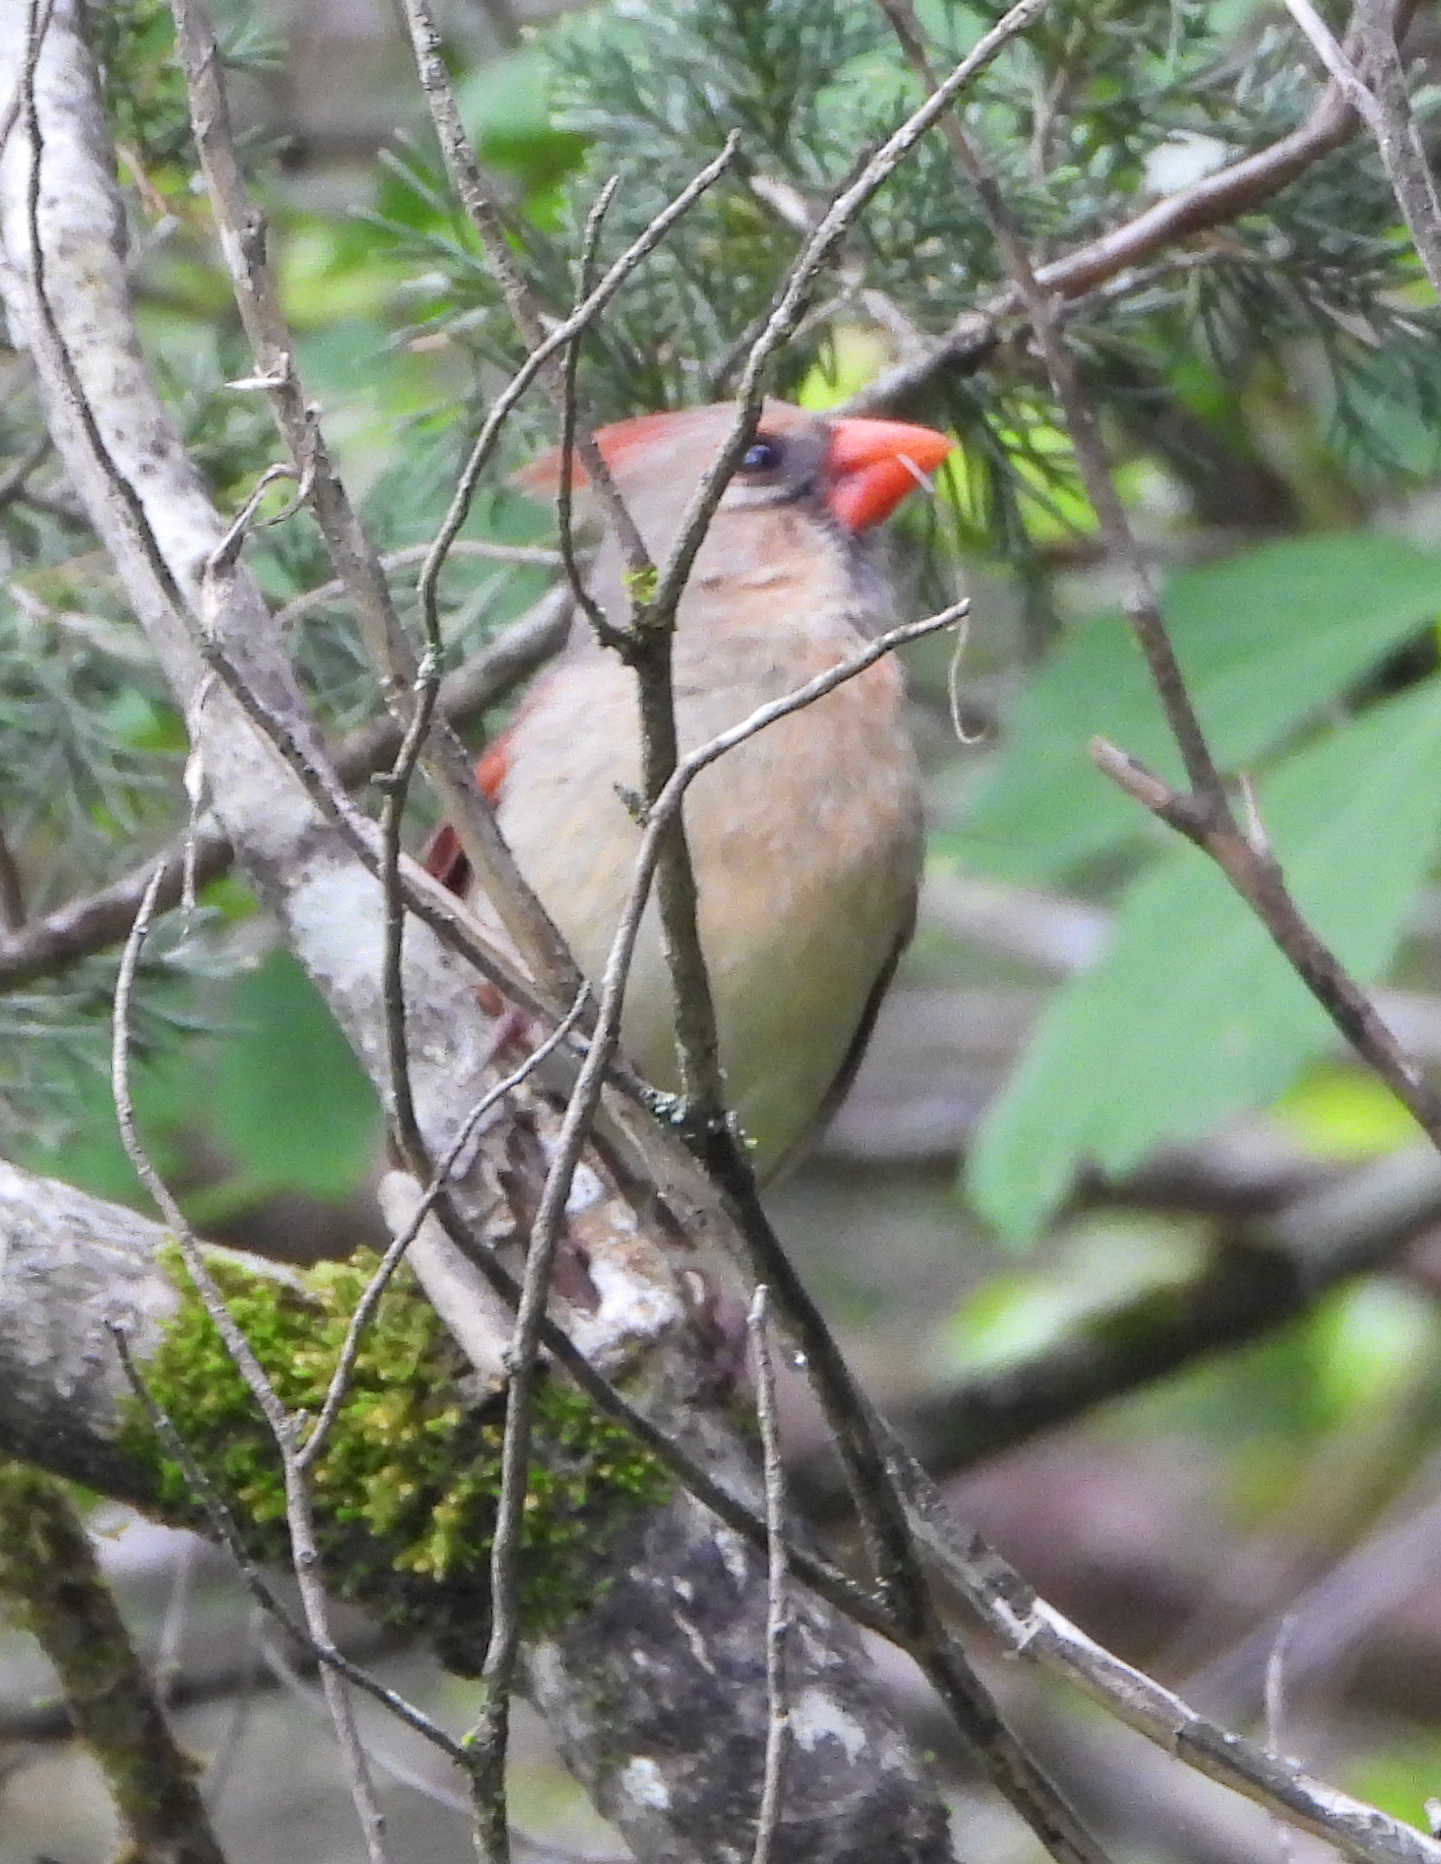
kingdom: Animalia
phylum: Chordata
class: Aves
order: Passeriformes
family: Cardinalidae
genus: Cardinalis
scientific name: Cardinalis cardinalis
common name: Northern cardinal
